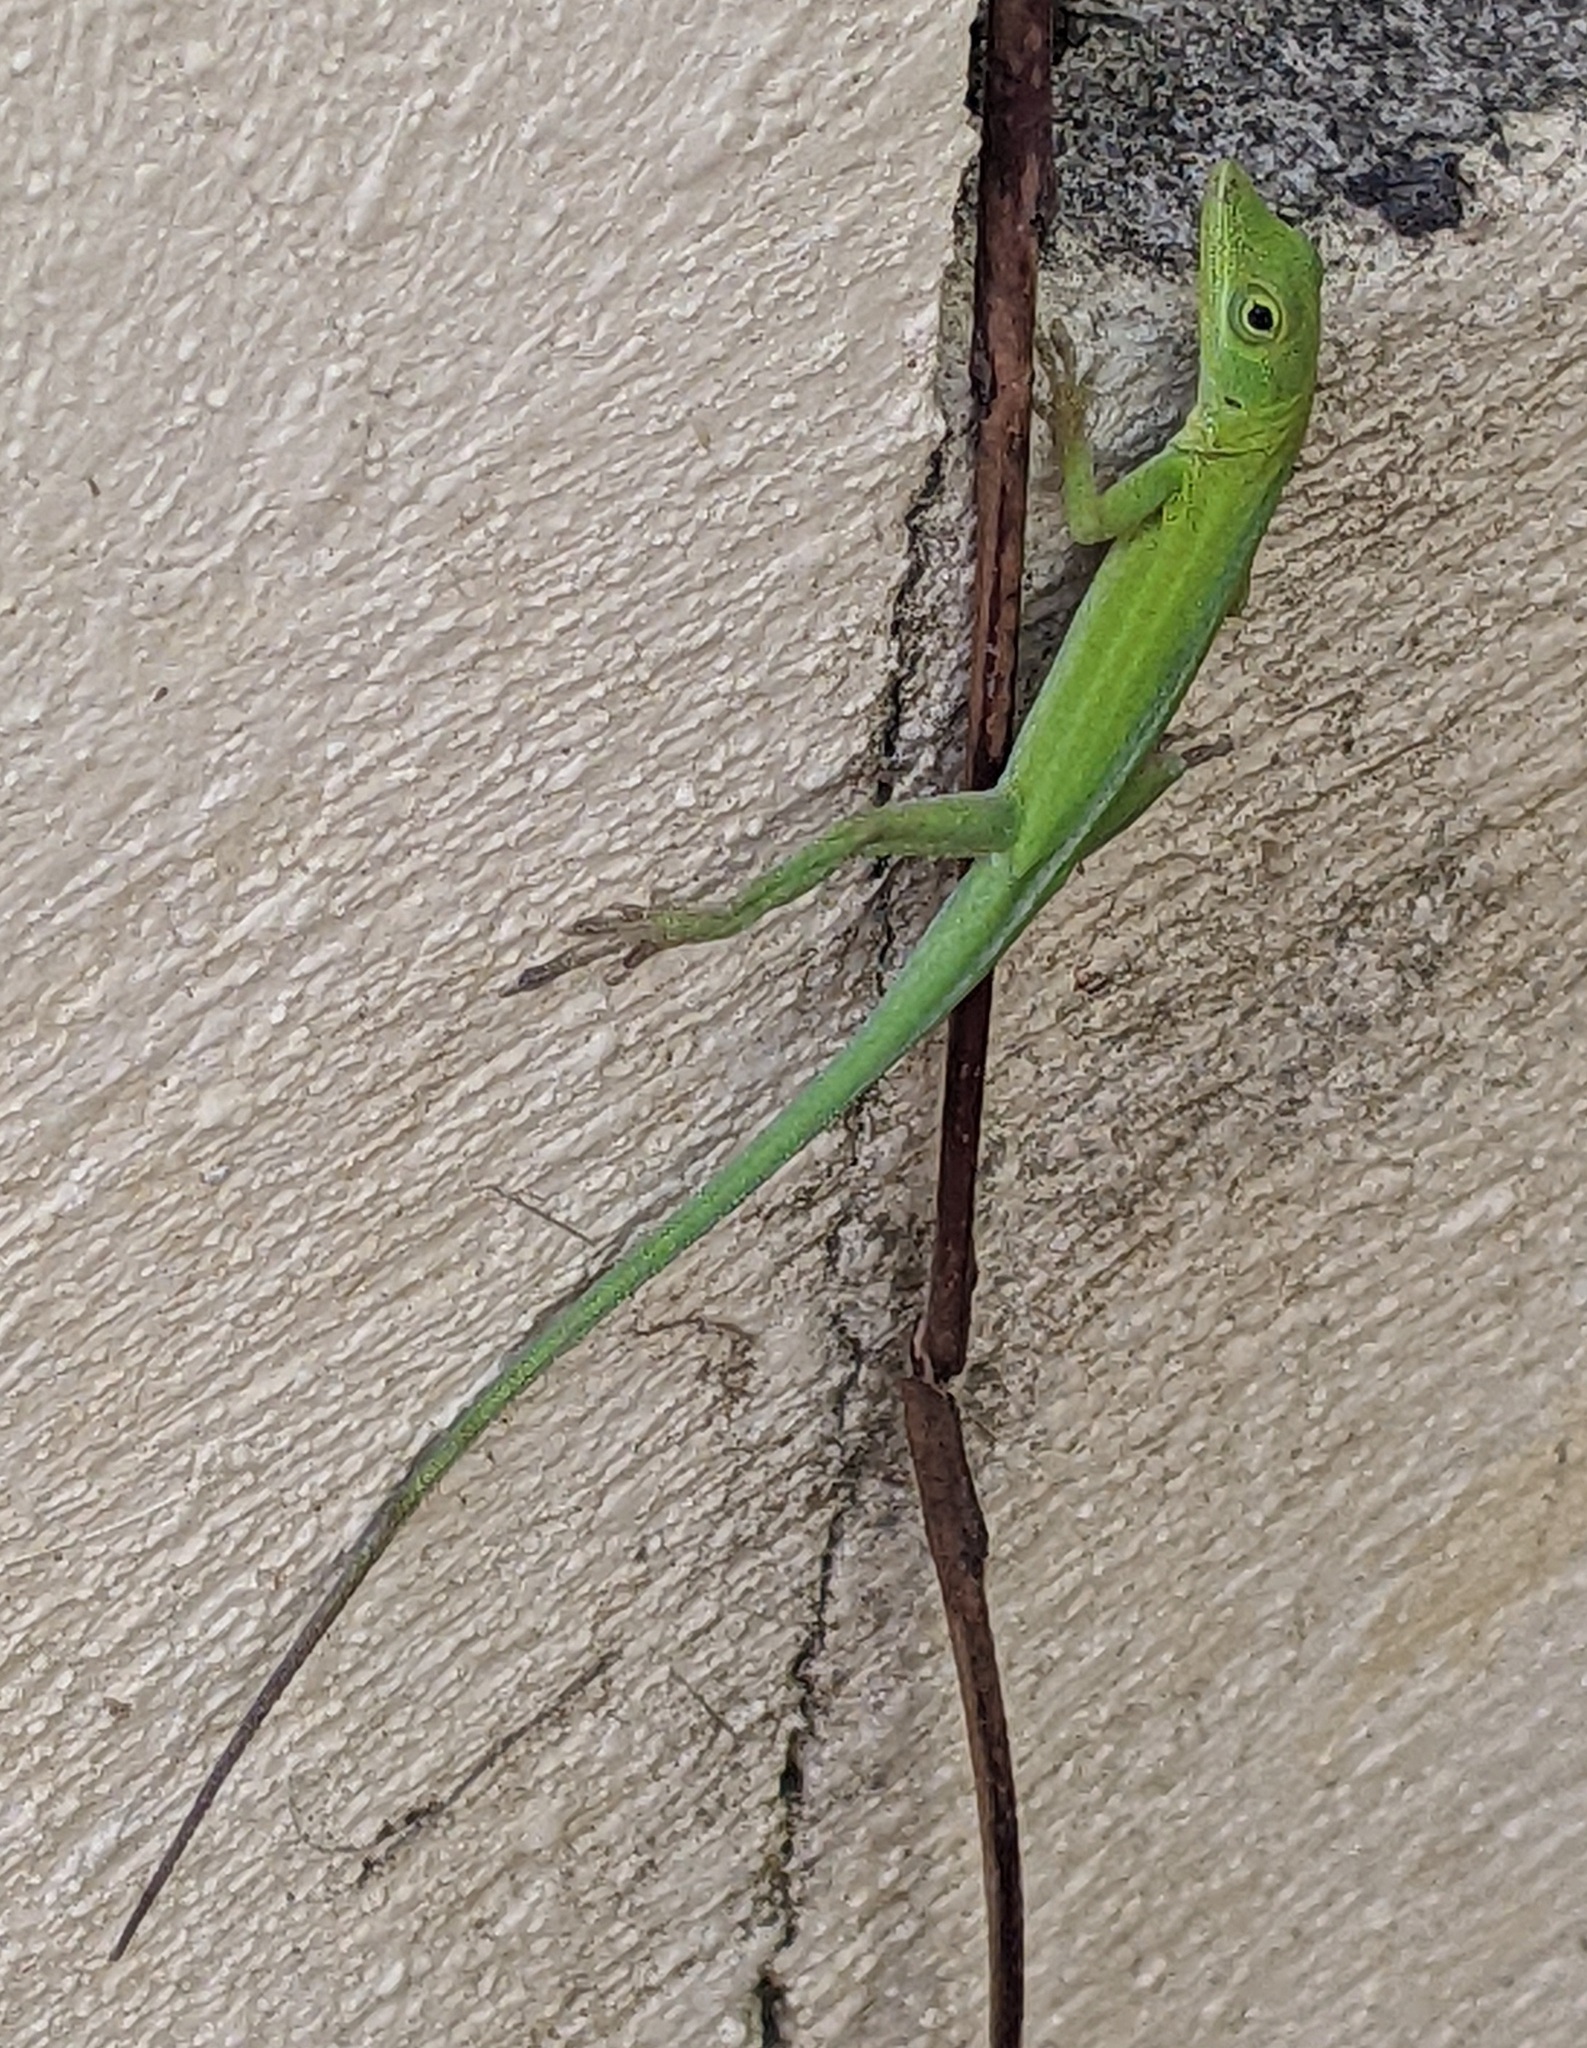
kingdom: Animalia
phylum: Chordata
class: Squamata
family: Dactyloidae
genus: Anolis
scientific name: Anolis callainus
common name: Dominican green anole
